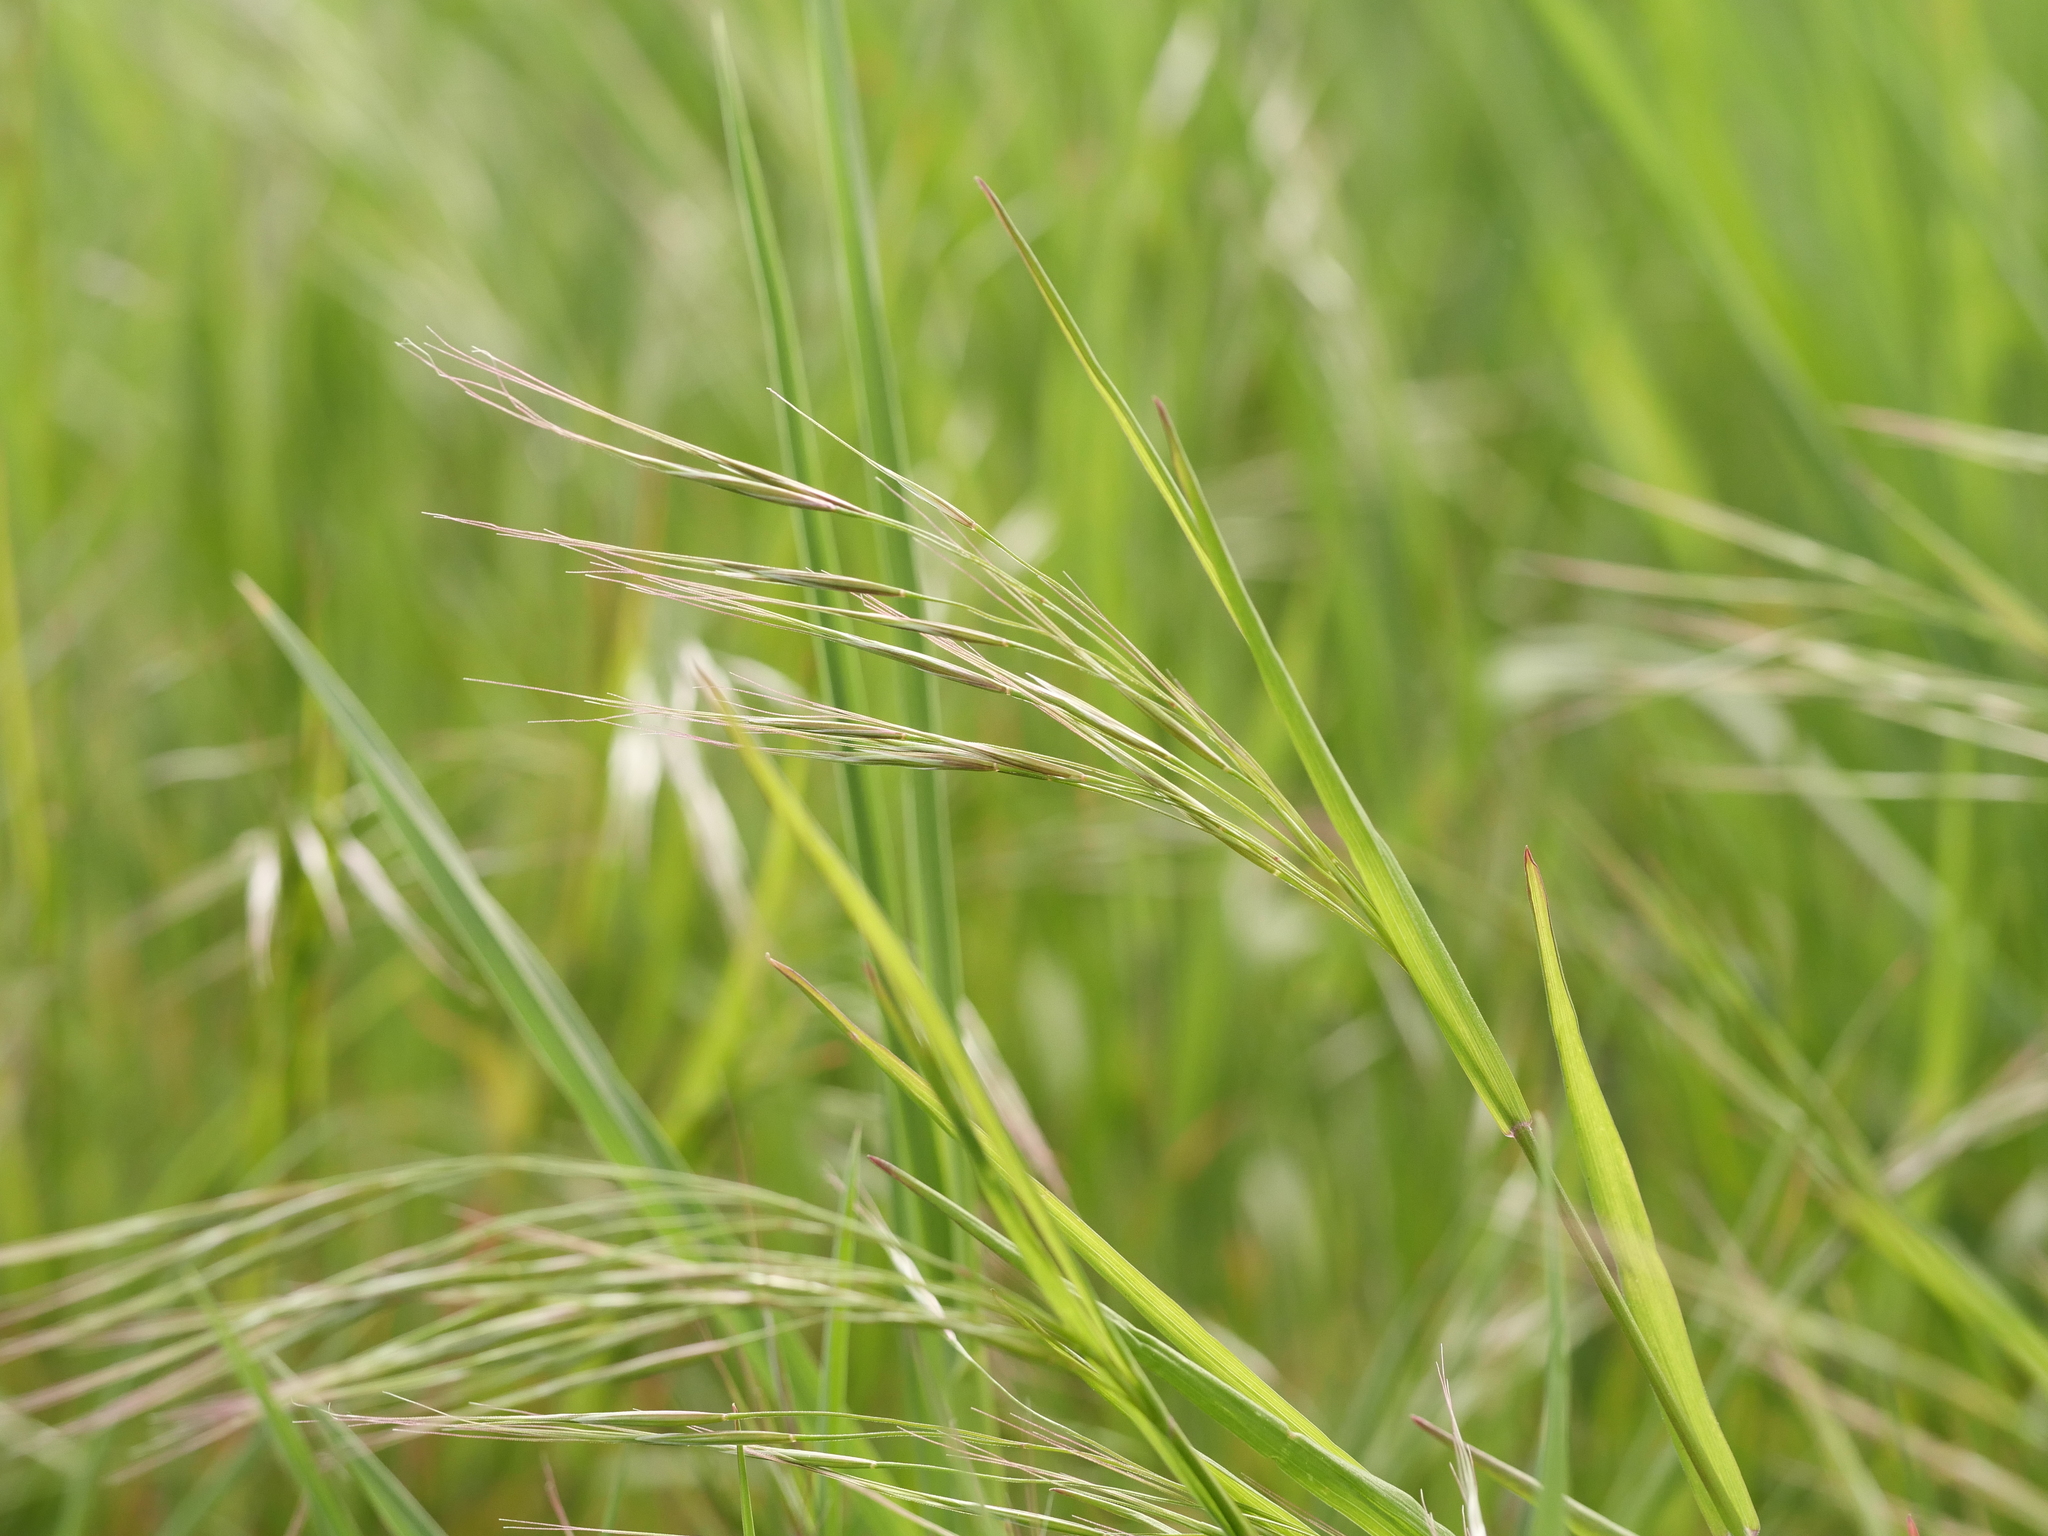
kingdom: Plantae
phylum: Tracheophyta
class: Liliopsida
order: Poales
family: Poaceae
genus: Bromus
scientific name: Bromus sterilis
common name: Poverty brome
